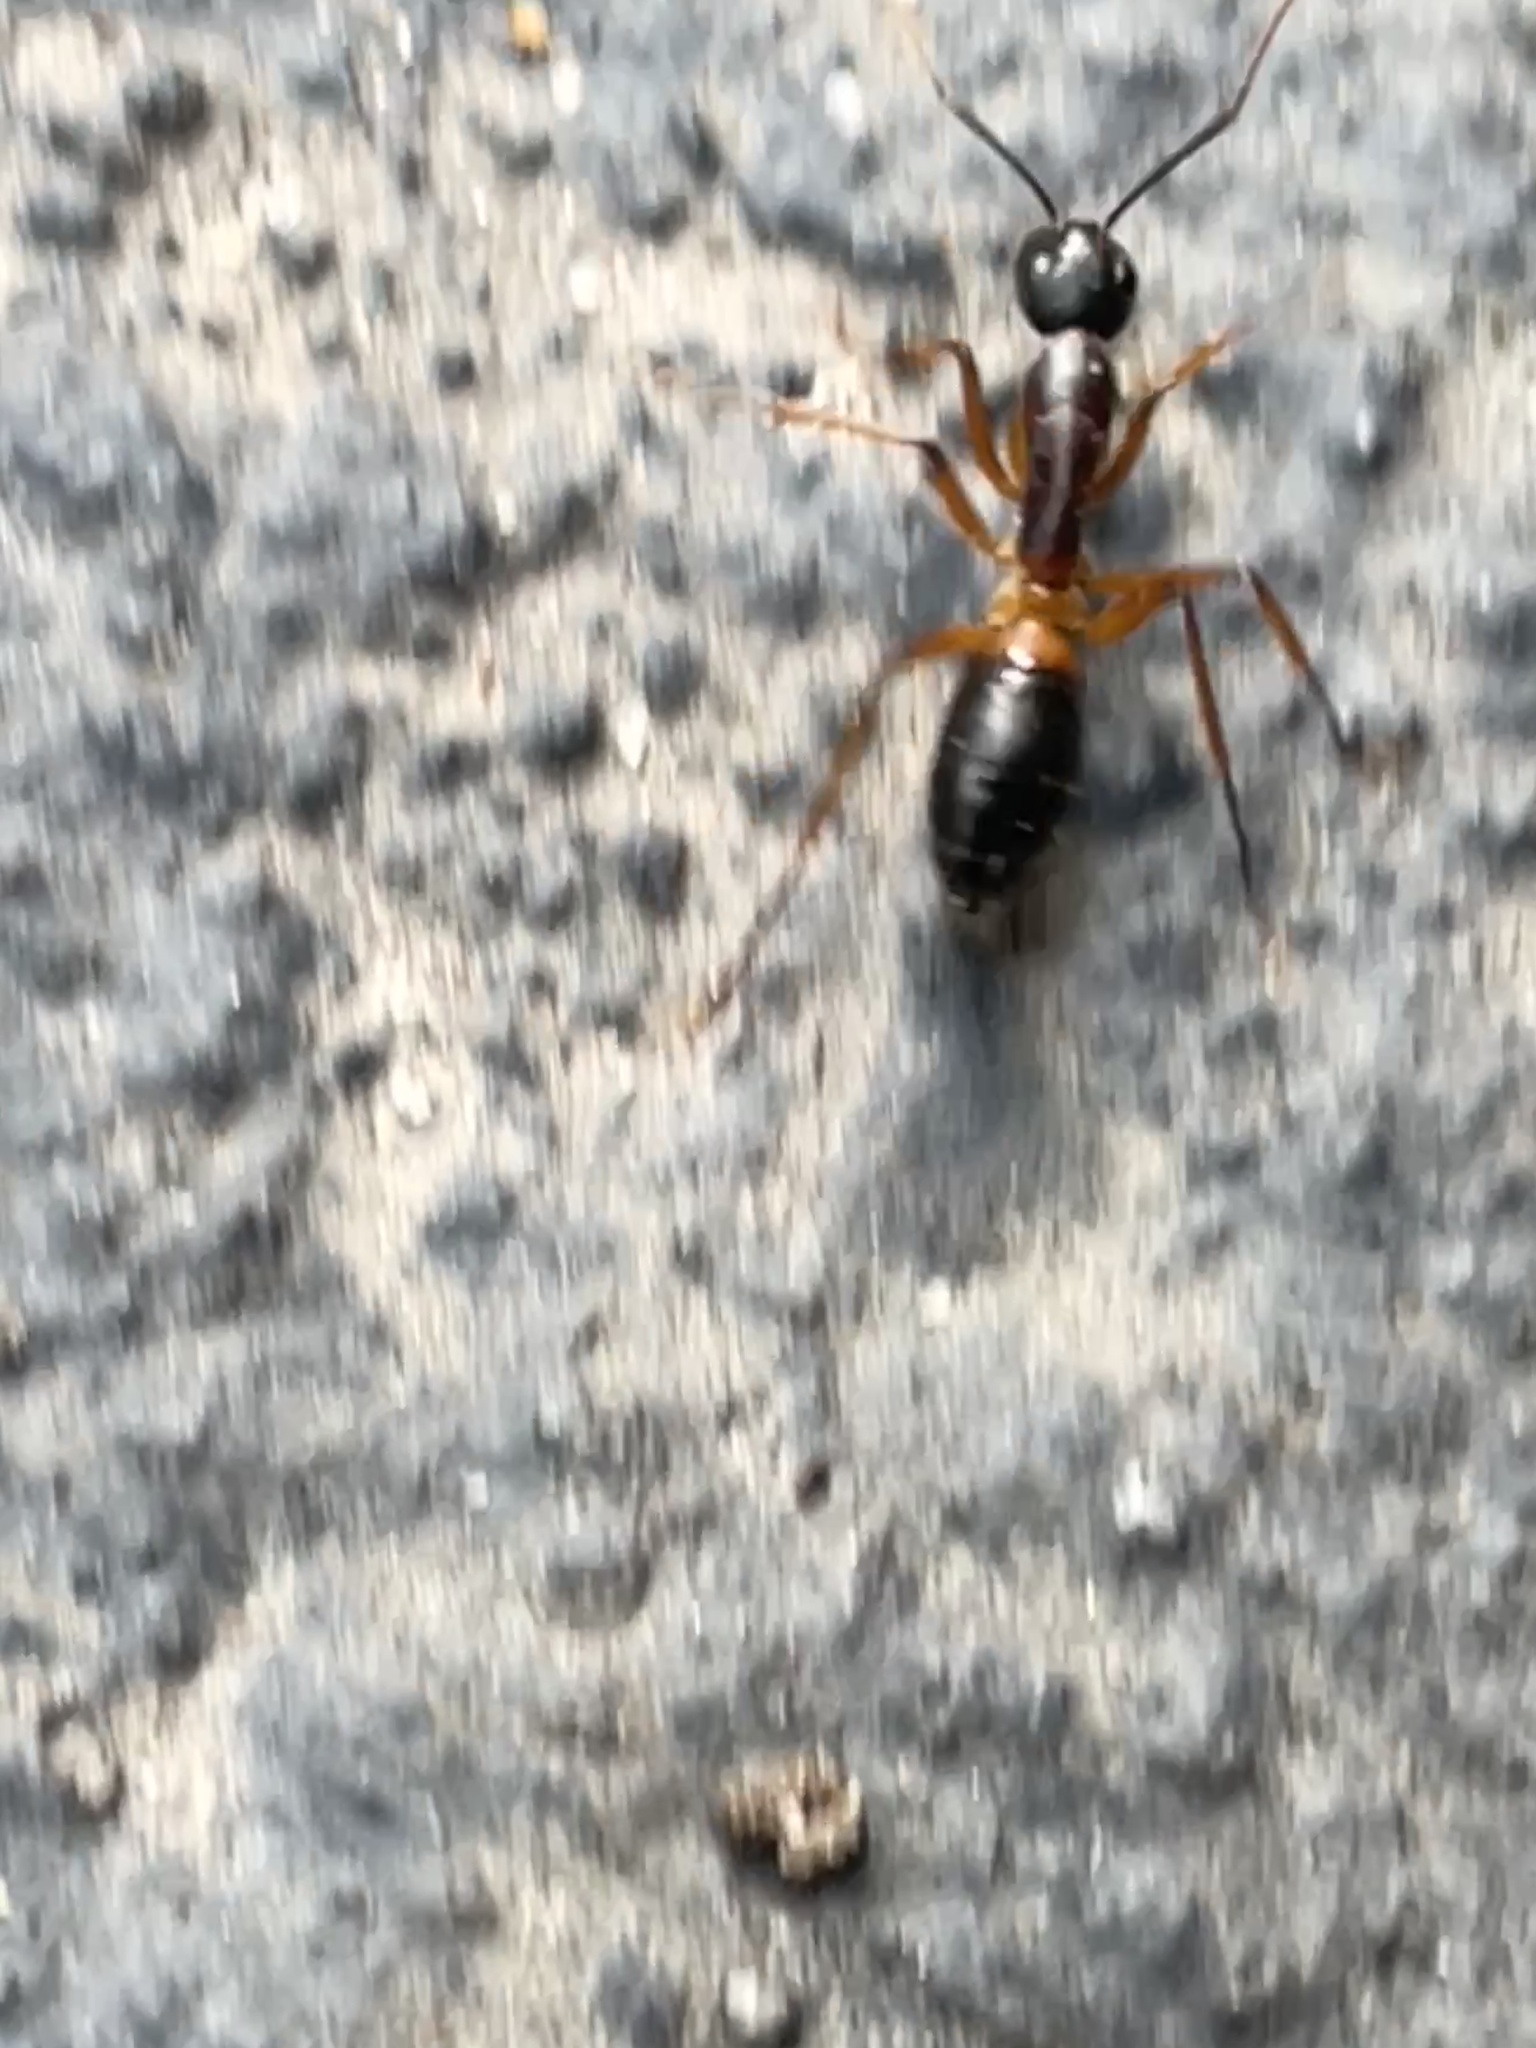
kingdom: Animalia
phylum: Arthropoda
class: Insecta
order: Hymenoptera
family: Formicidae
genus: Camponotus
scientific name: Camponotus consobrinus
